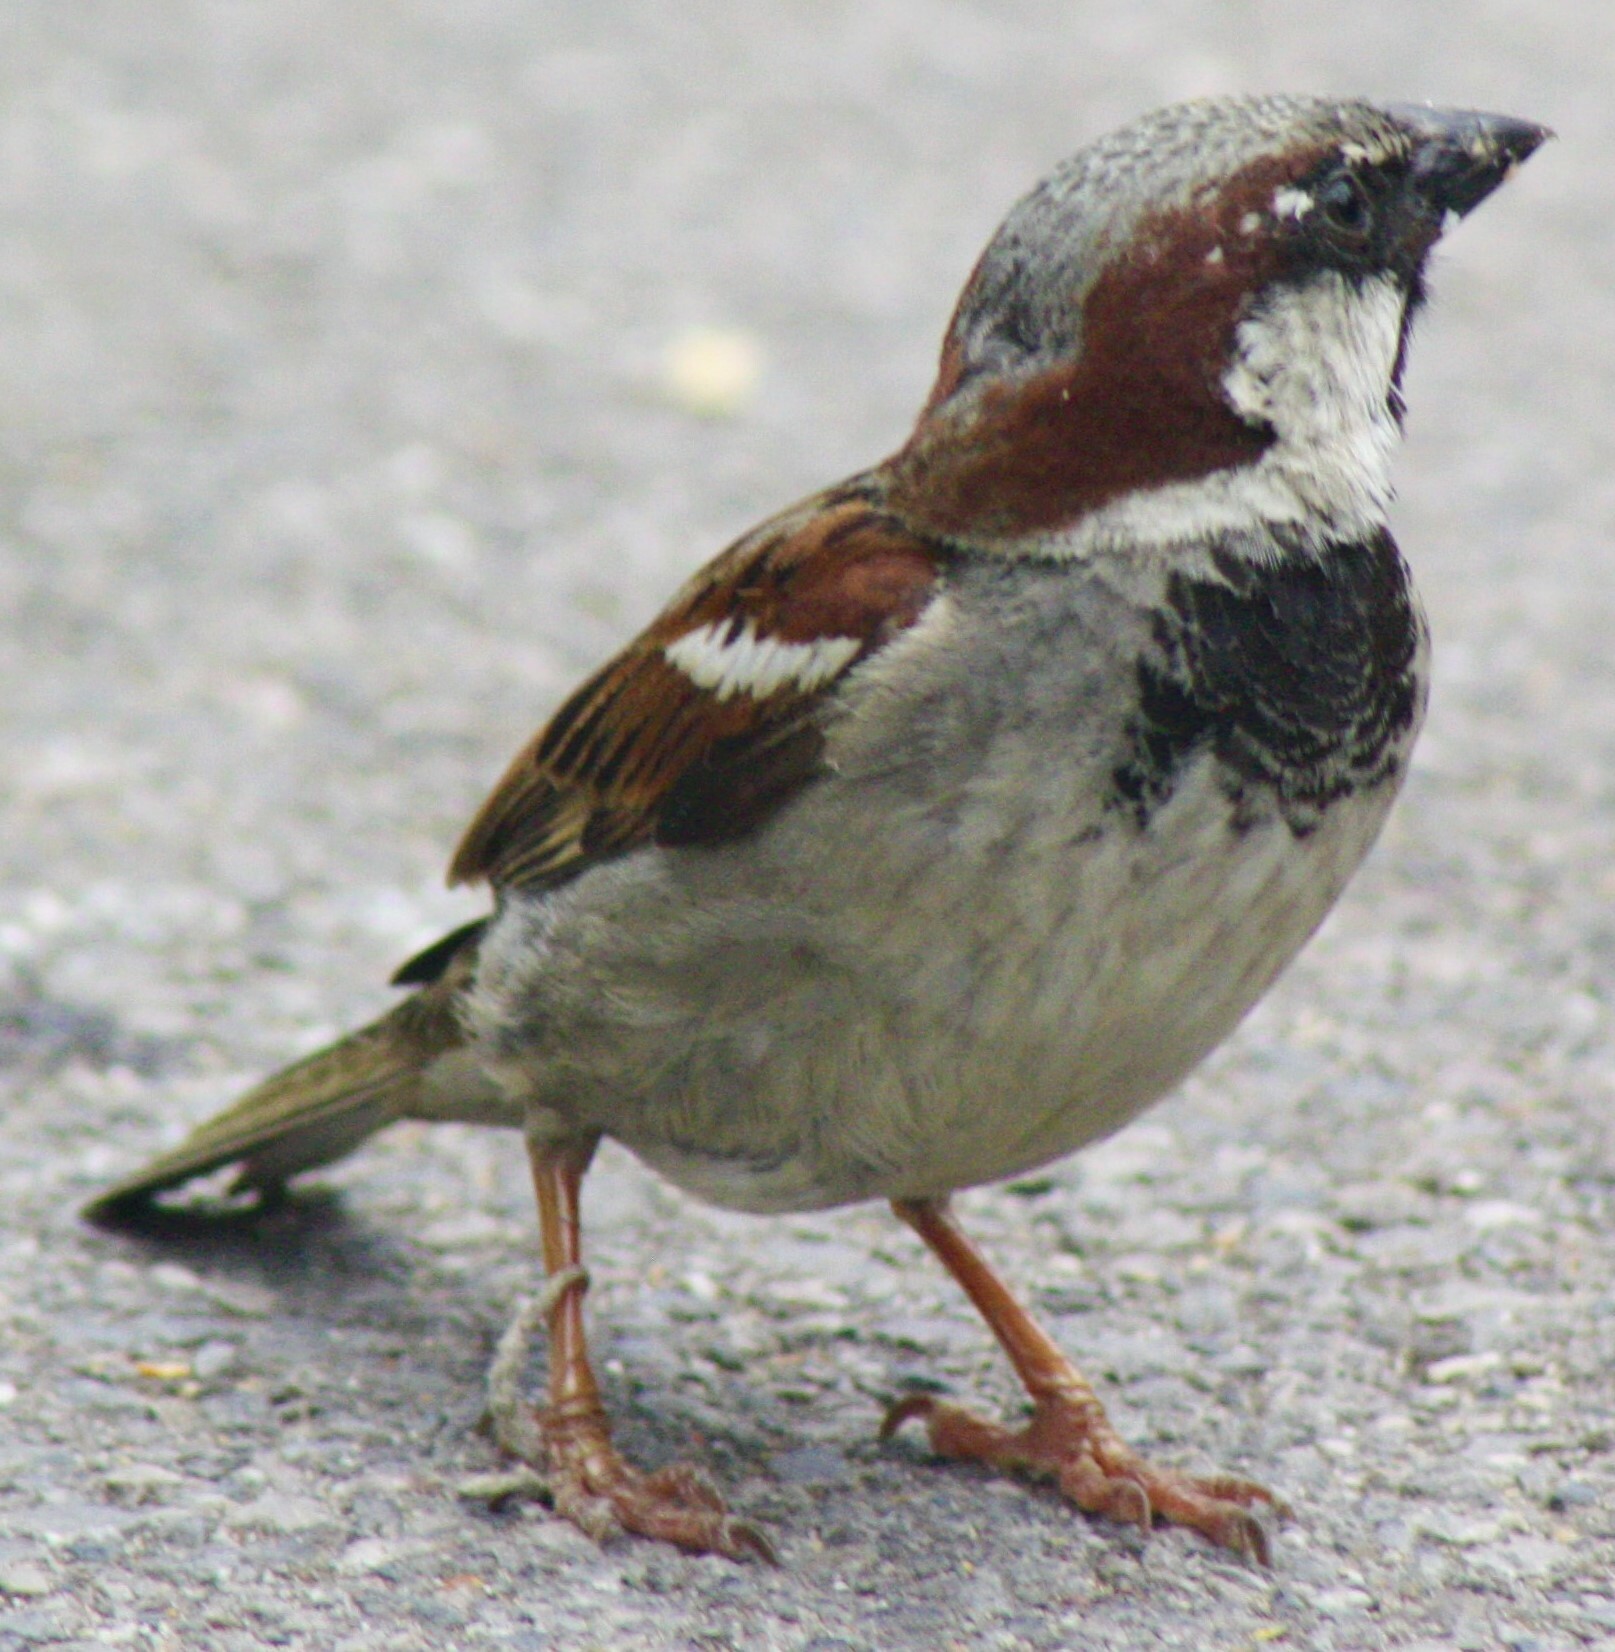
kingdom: Animalia
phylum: Chordata
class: Aves
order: Passeriformes
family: Passeridae
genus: Passer
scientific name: Passer domesticus
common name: House sparrow
